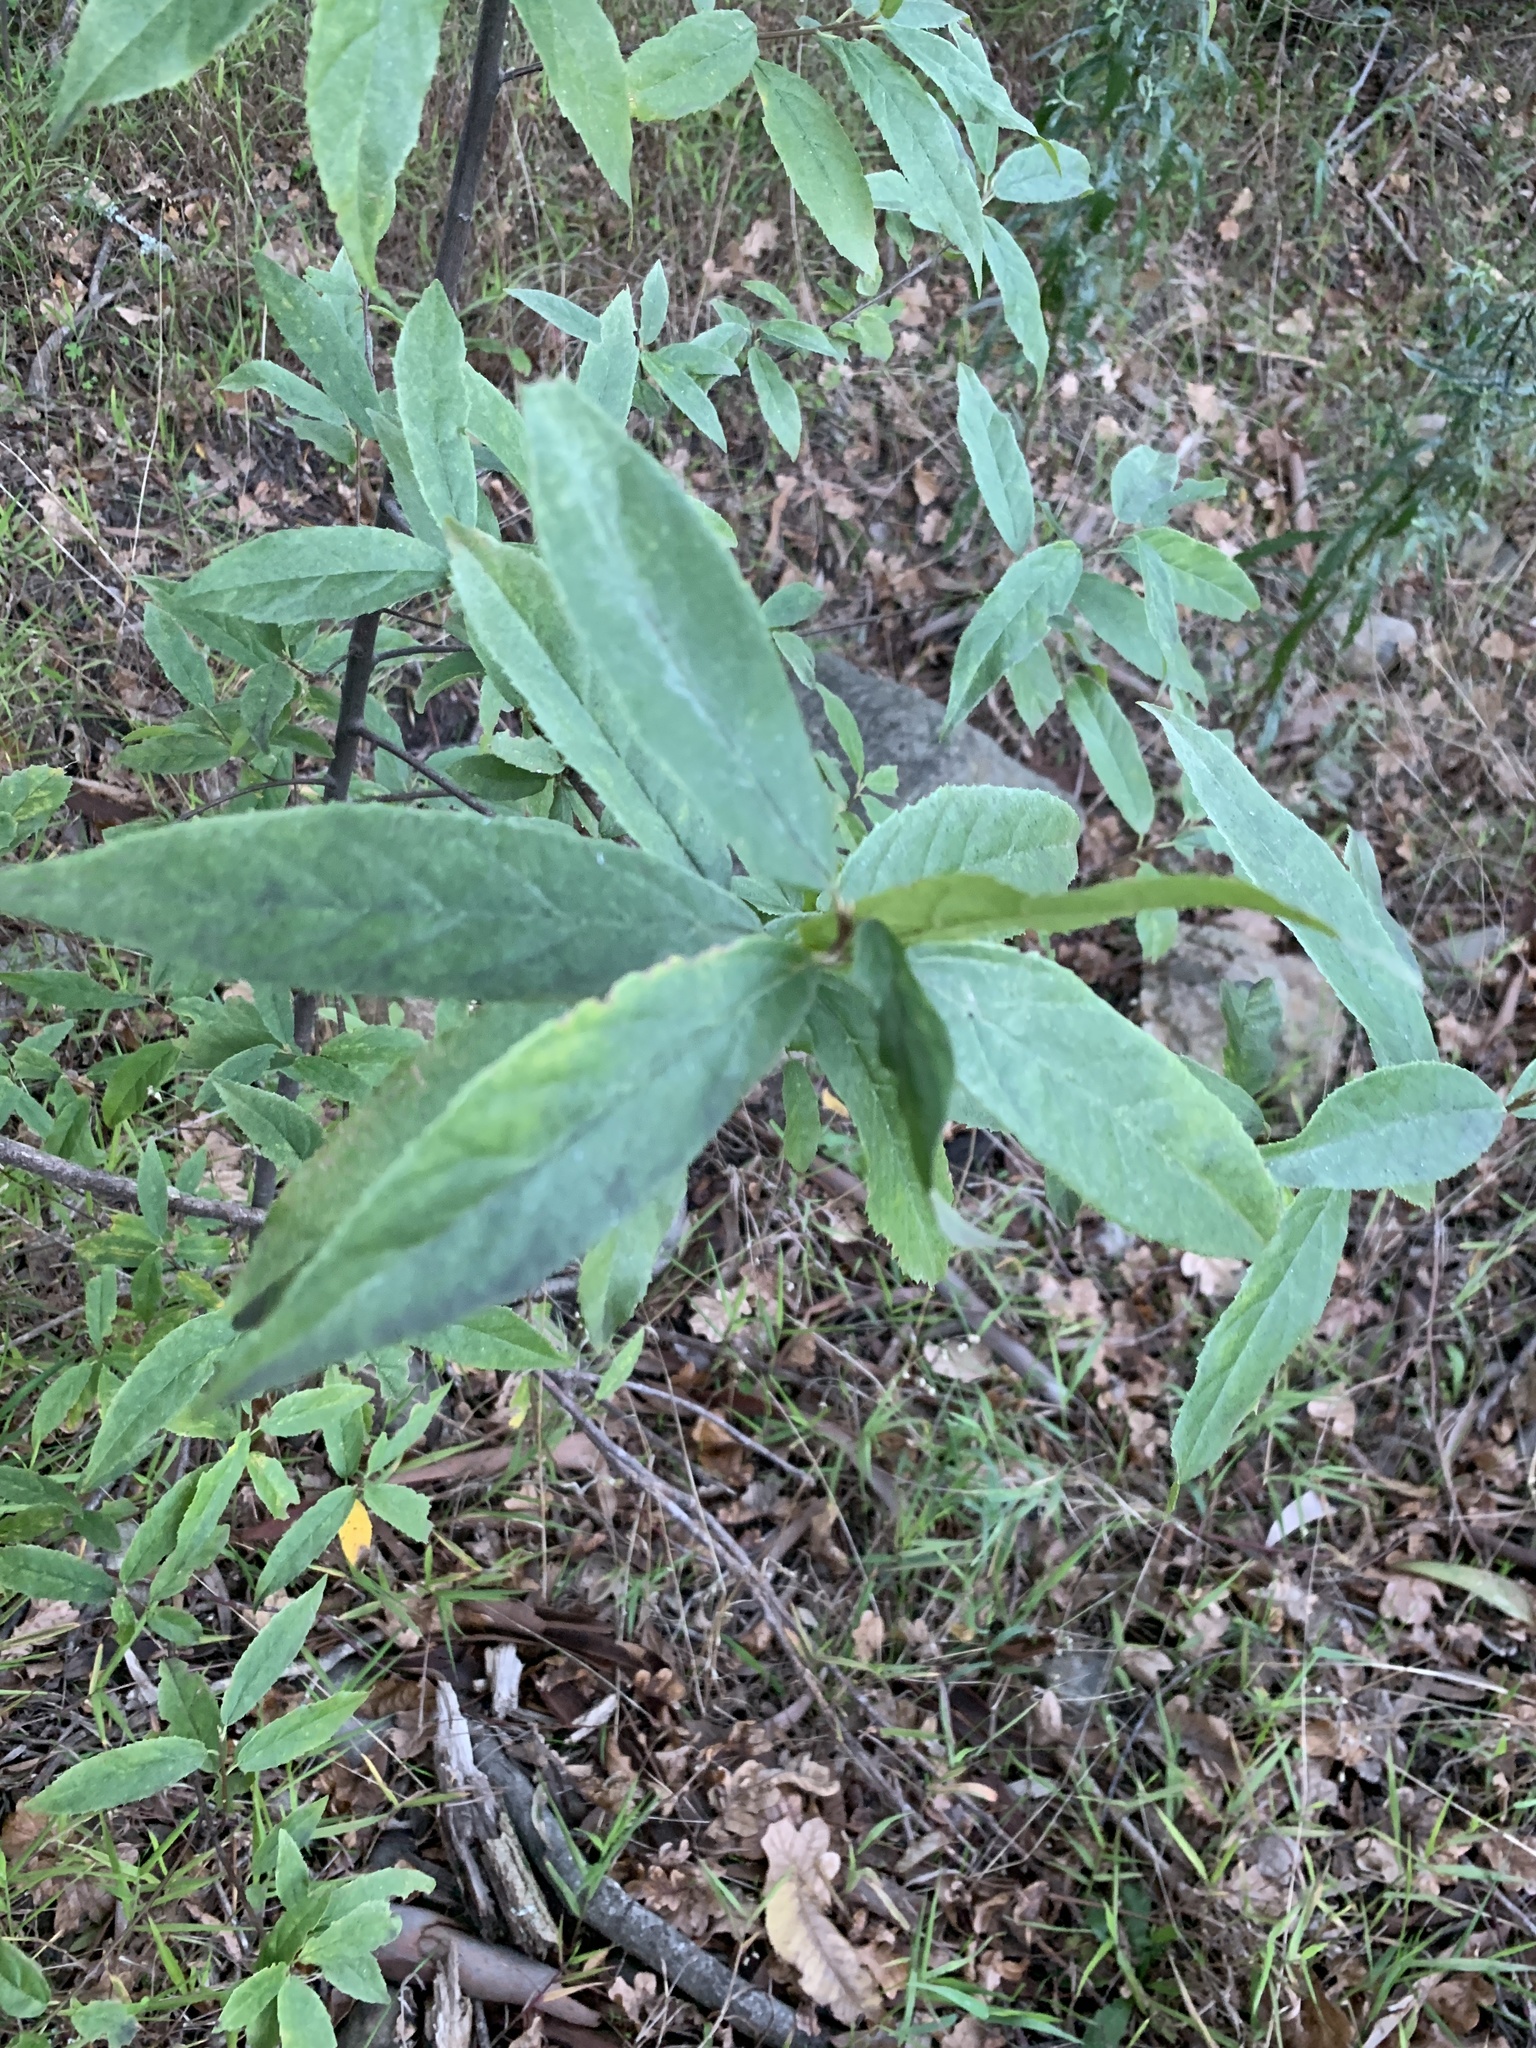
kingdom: Plantae
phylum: Tracheophyta
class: Magnoliopsida
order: Malpighiales
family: Achariaceae
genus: Kiggelaria
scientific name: Kiggelaria africana
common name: Wild peach
